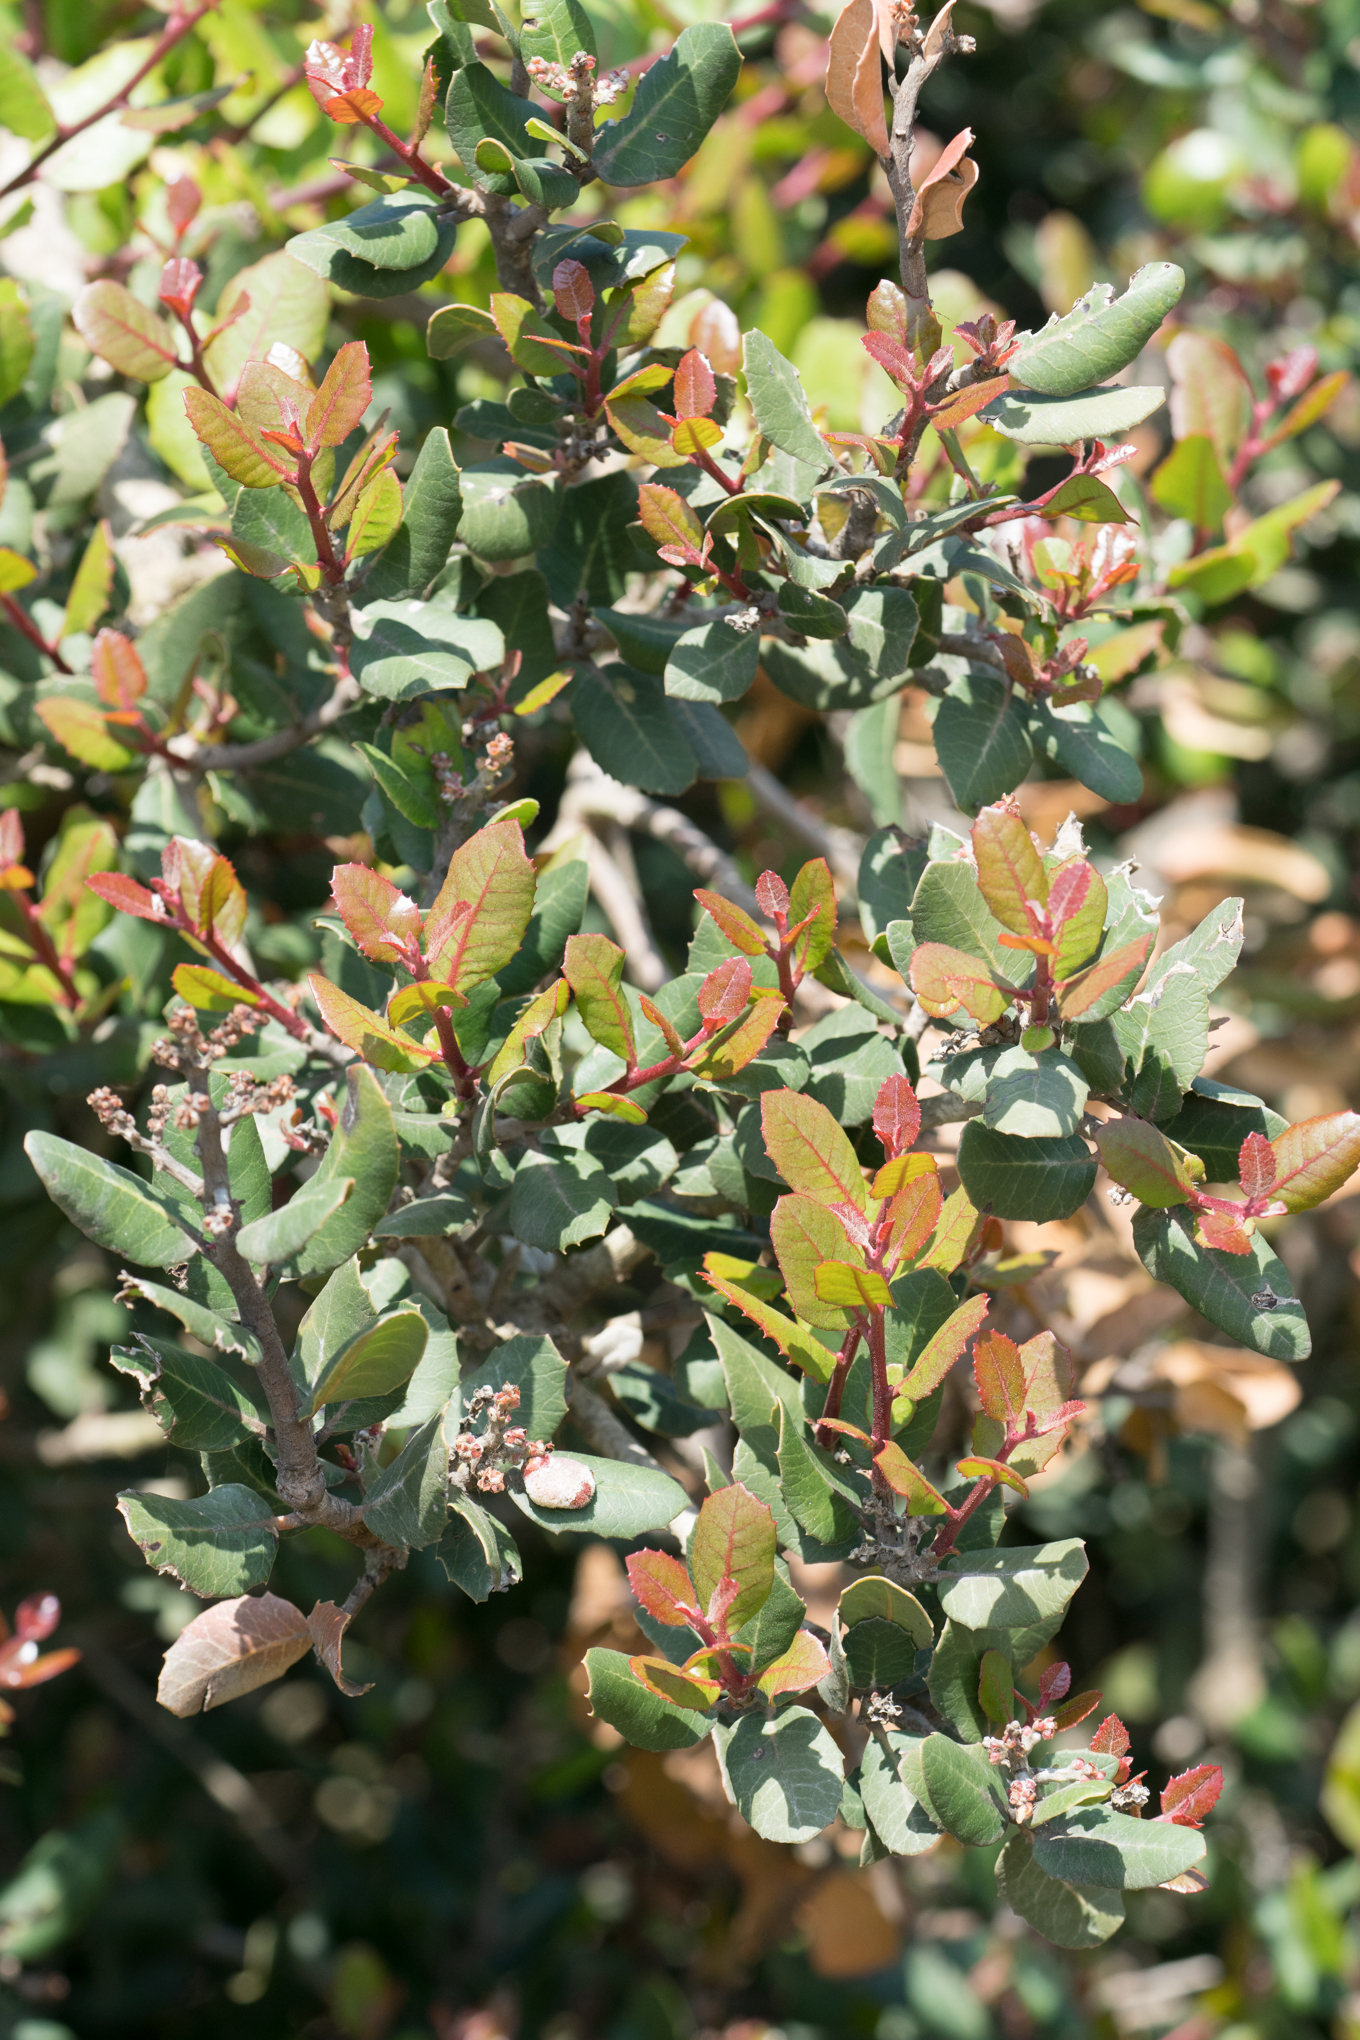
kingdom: Plantae
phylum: Tracheophyta
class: Magnoliopsida
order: Sapindales
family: Anacardiaceae
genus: Rhus
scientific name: Rhus integrifolia
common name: Lemonade sumac
